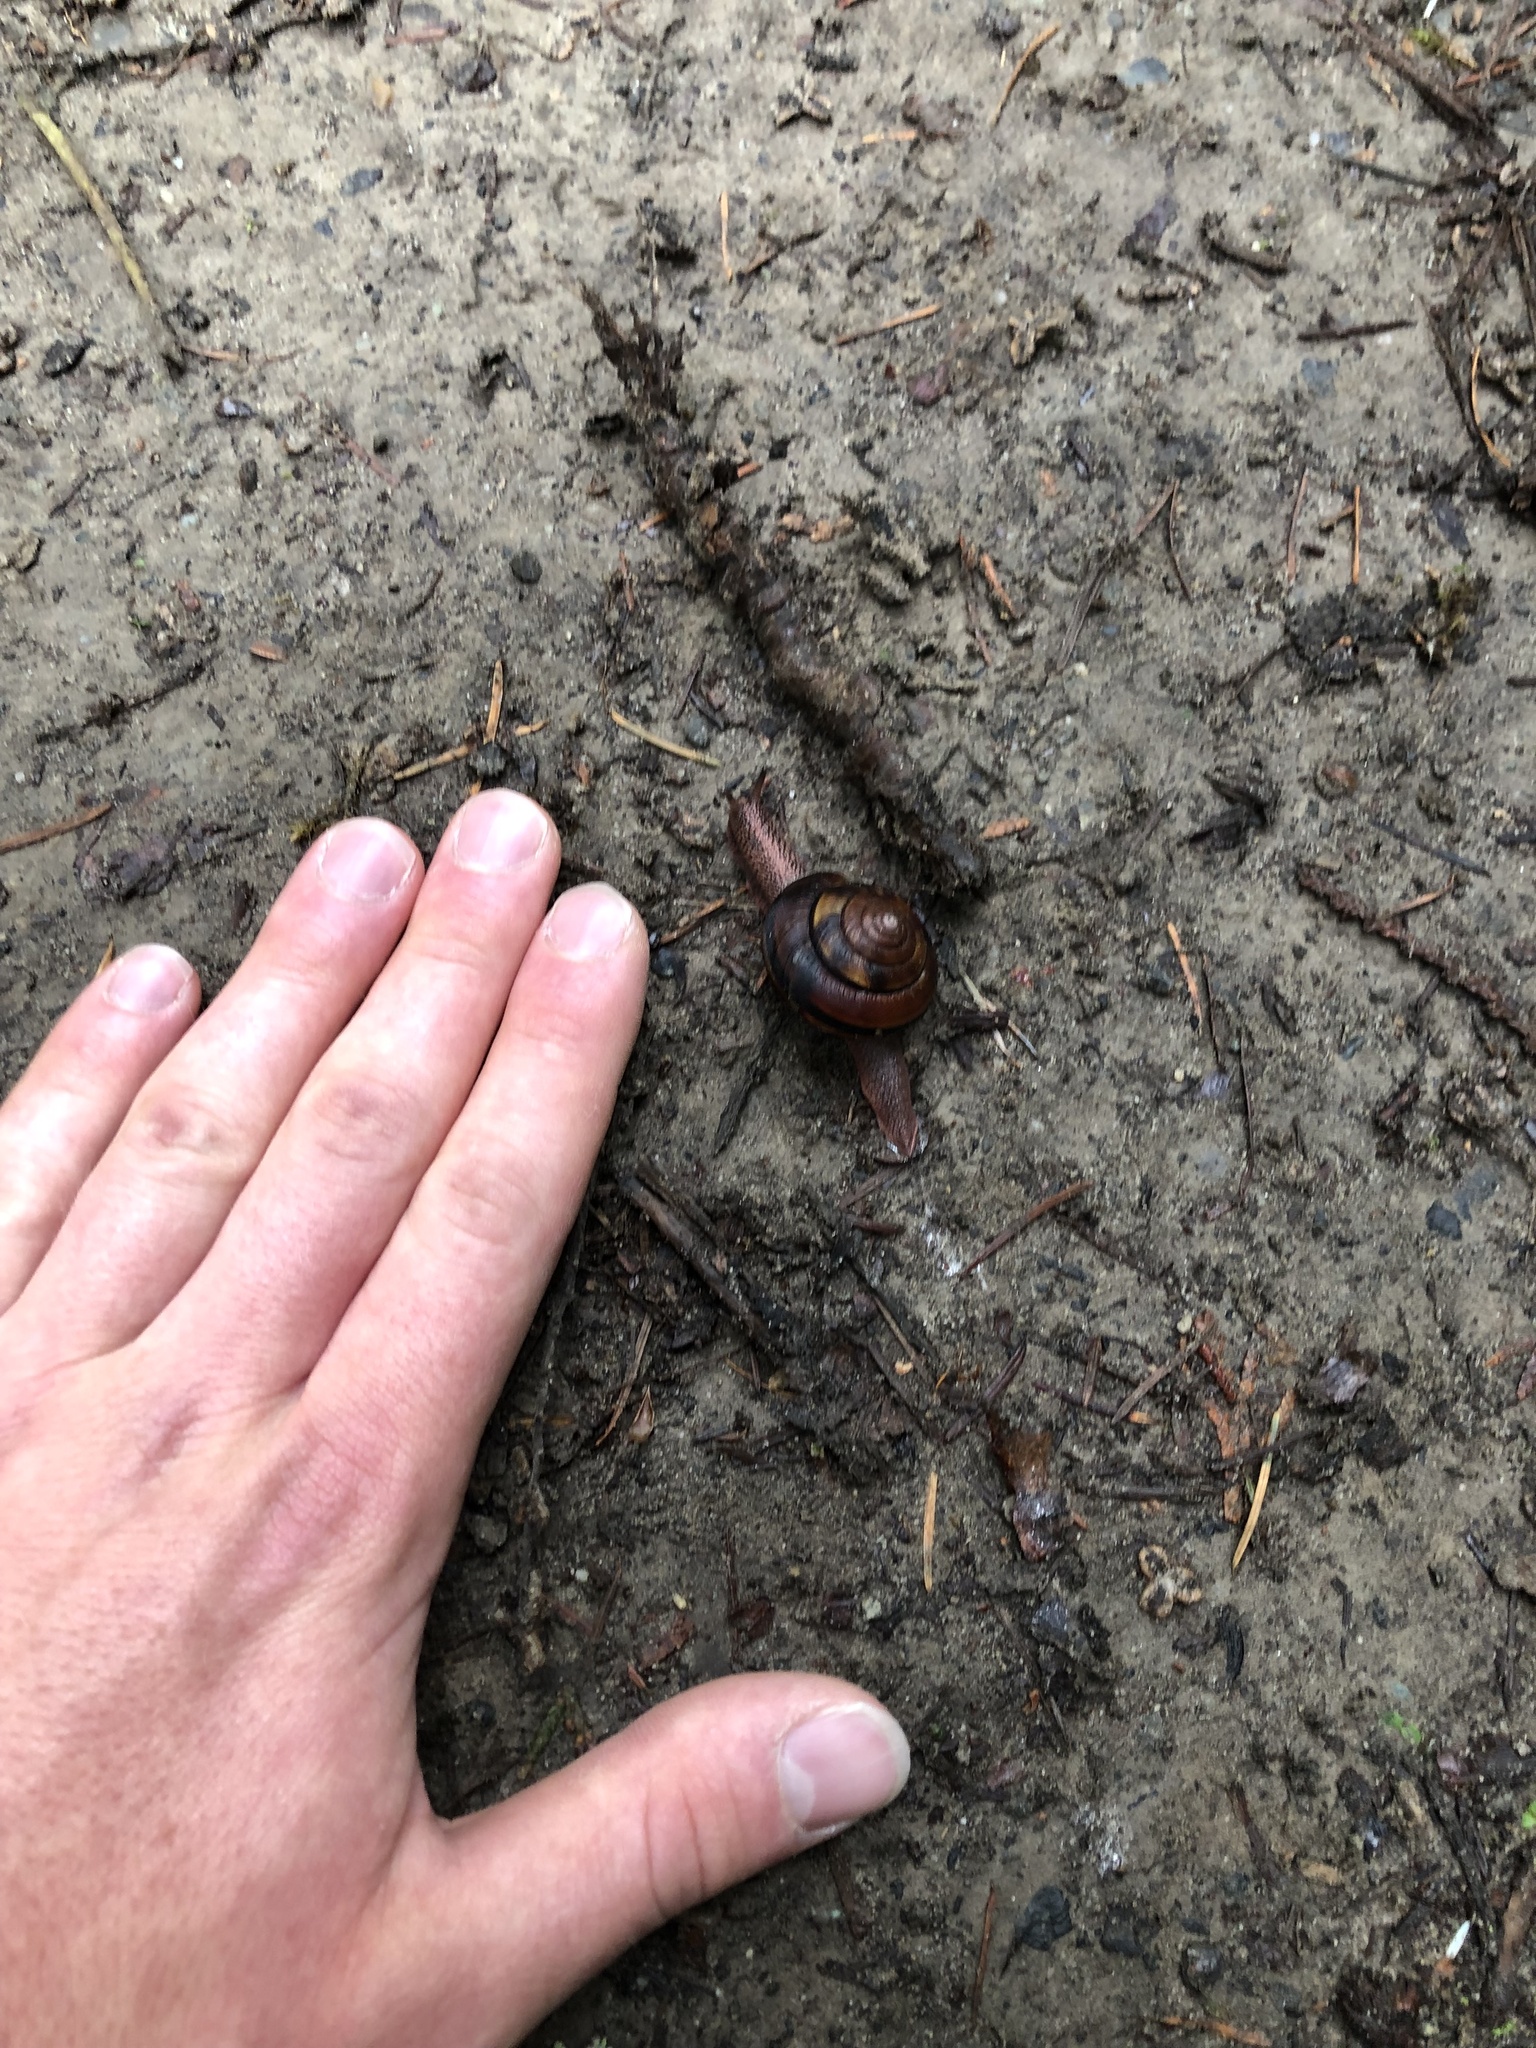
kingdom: Animalia
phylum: Mollusca
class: Gastropoda
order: Stylommatophora
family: Xanthonychidae
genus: Monadenia
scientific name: Monadenia fidelis
